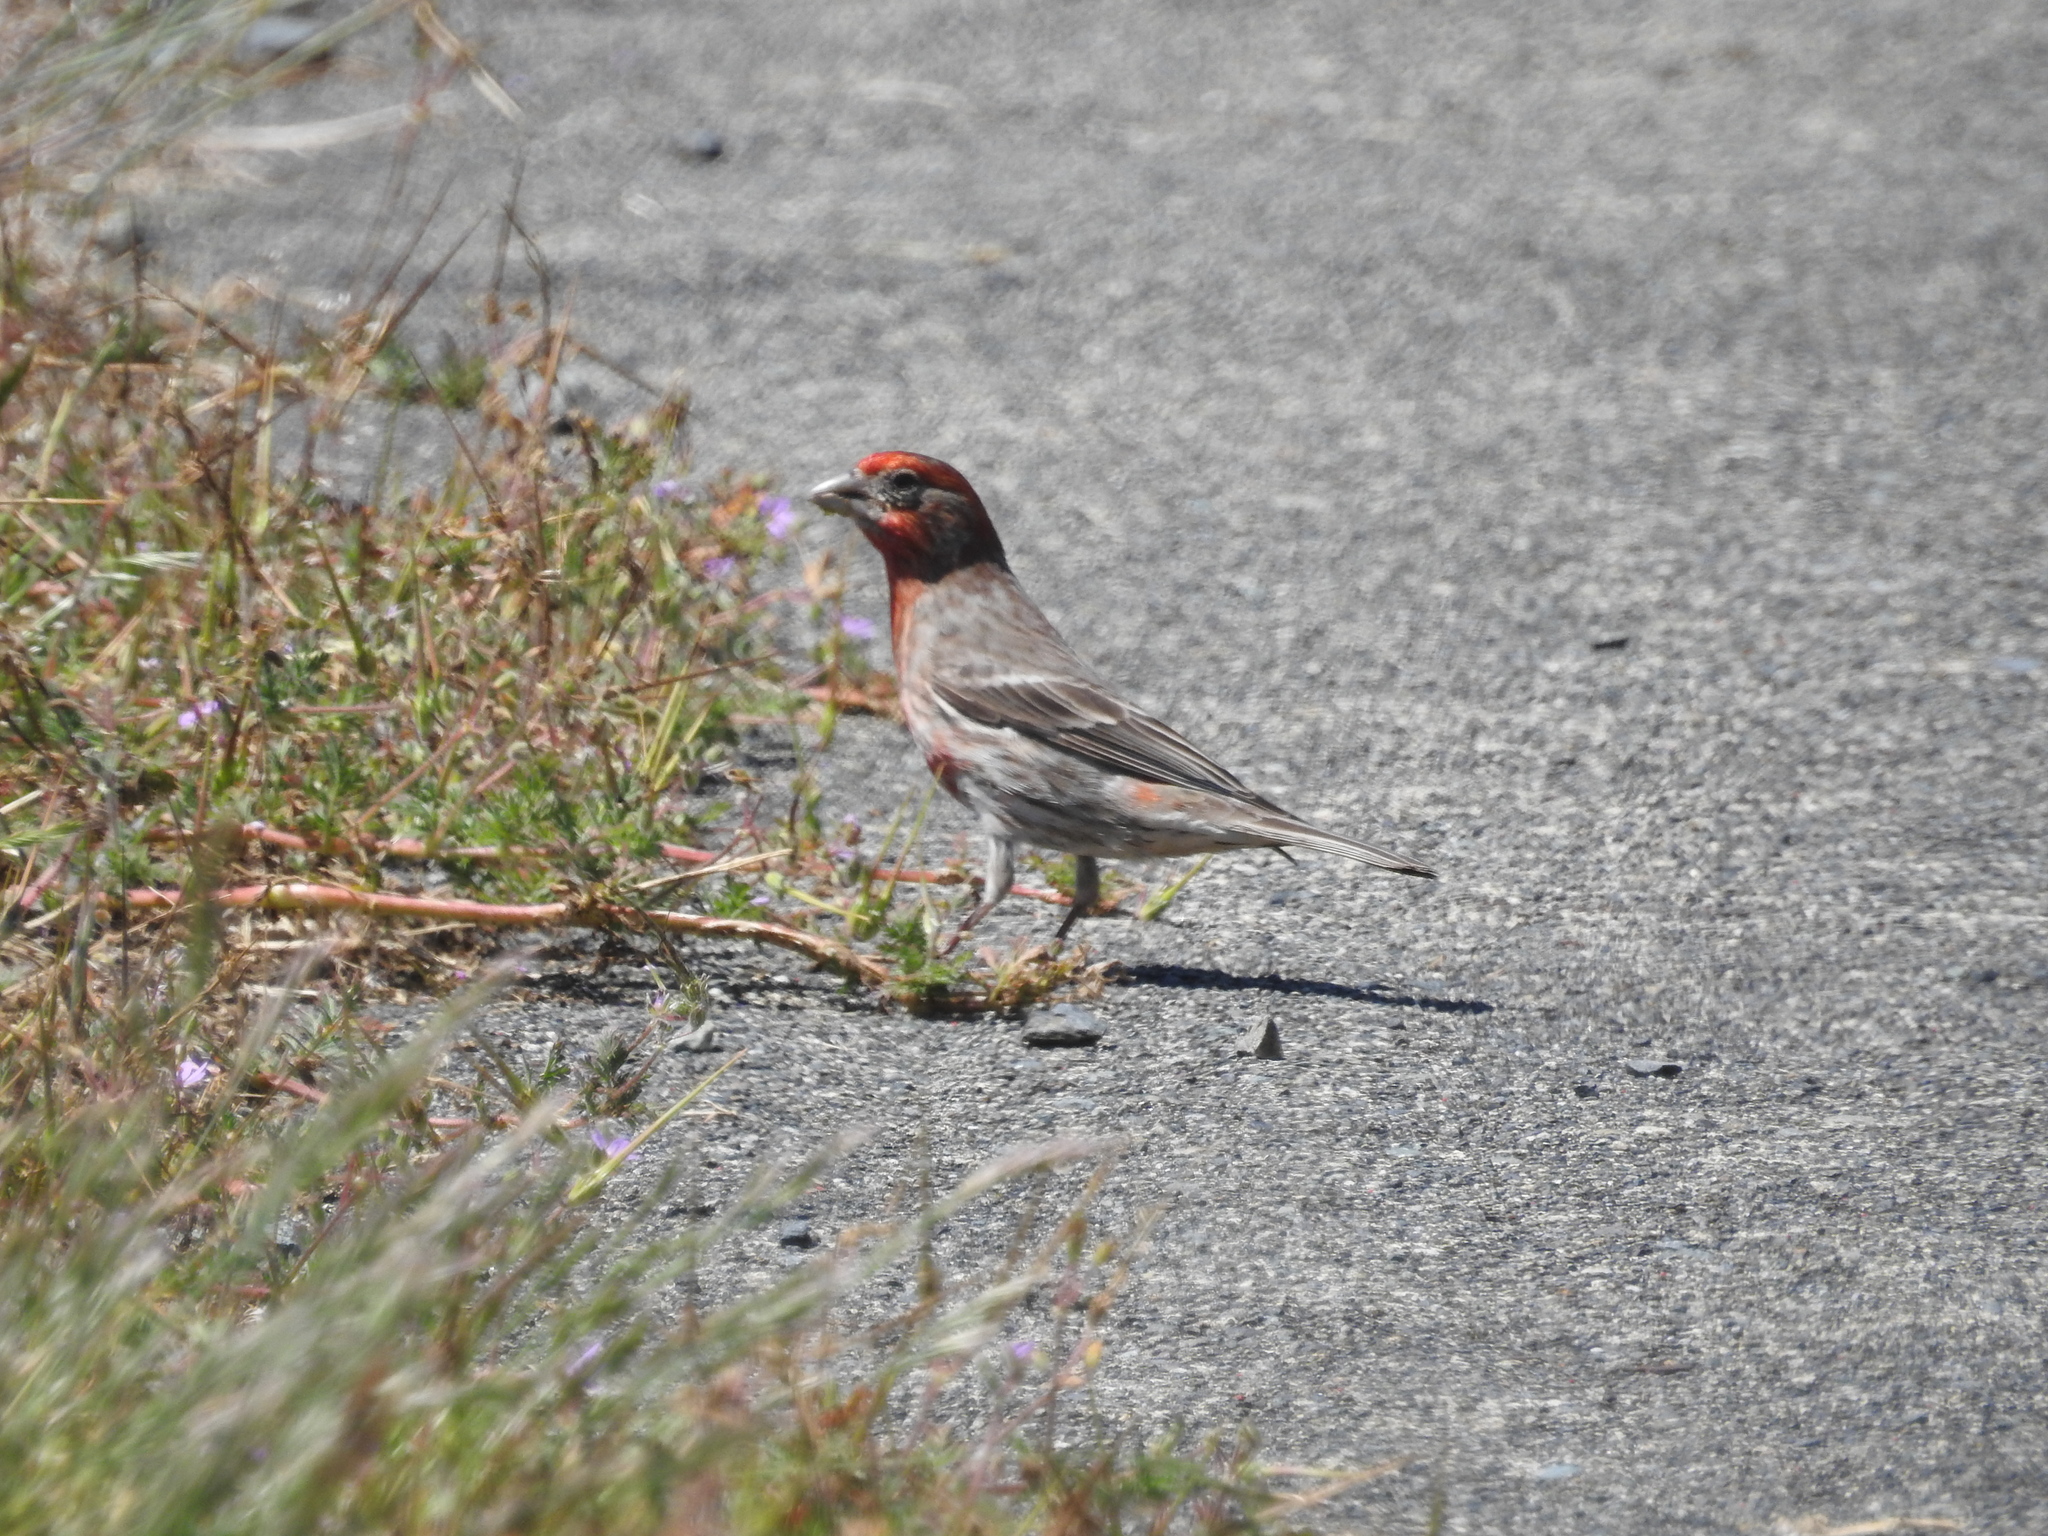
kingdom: Animalia
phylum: Chordata
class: Aves
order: Passeriformes
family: Fringillidae
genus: Haemorhous
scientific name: Haemorhous mexicanus
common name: House finch
